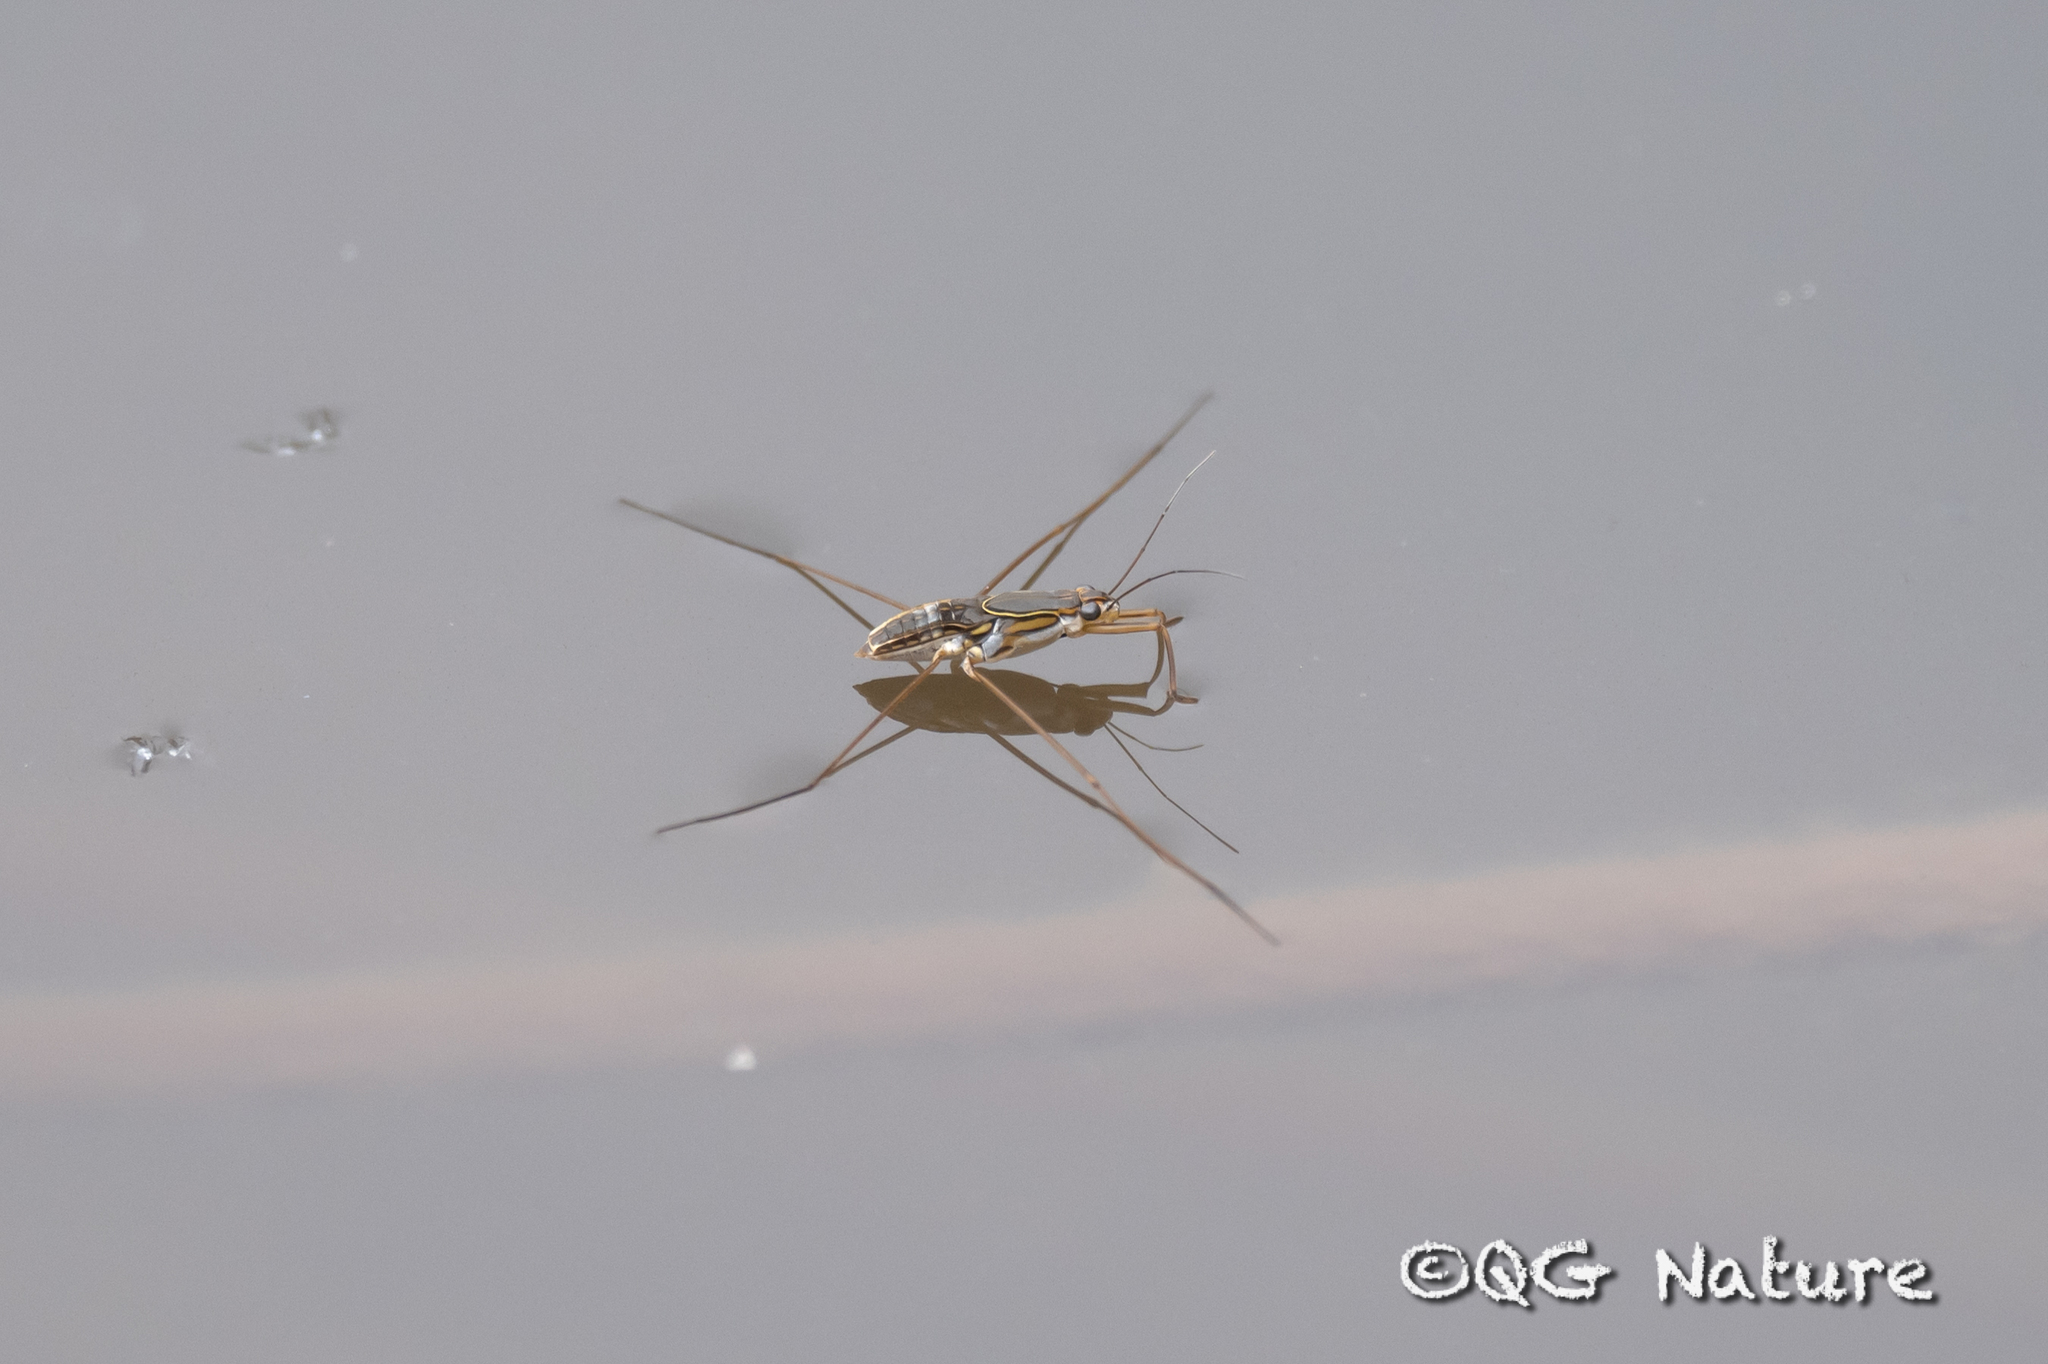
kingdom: Animalia
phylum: Arthropoda
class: Insecta
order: Hemiptera
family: Gerridae
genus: Limnogonus
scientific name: Limnogonus fossarum
